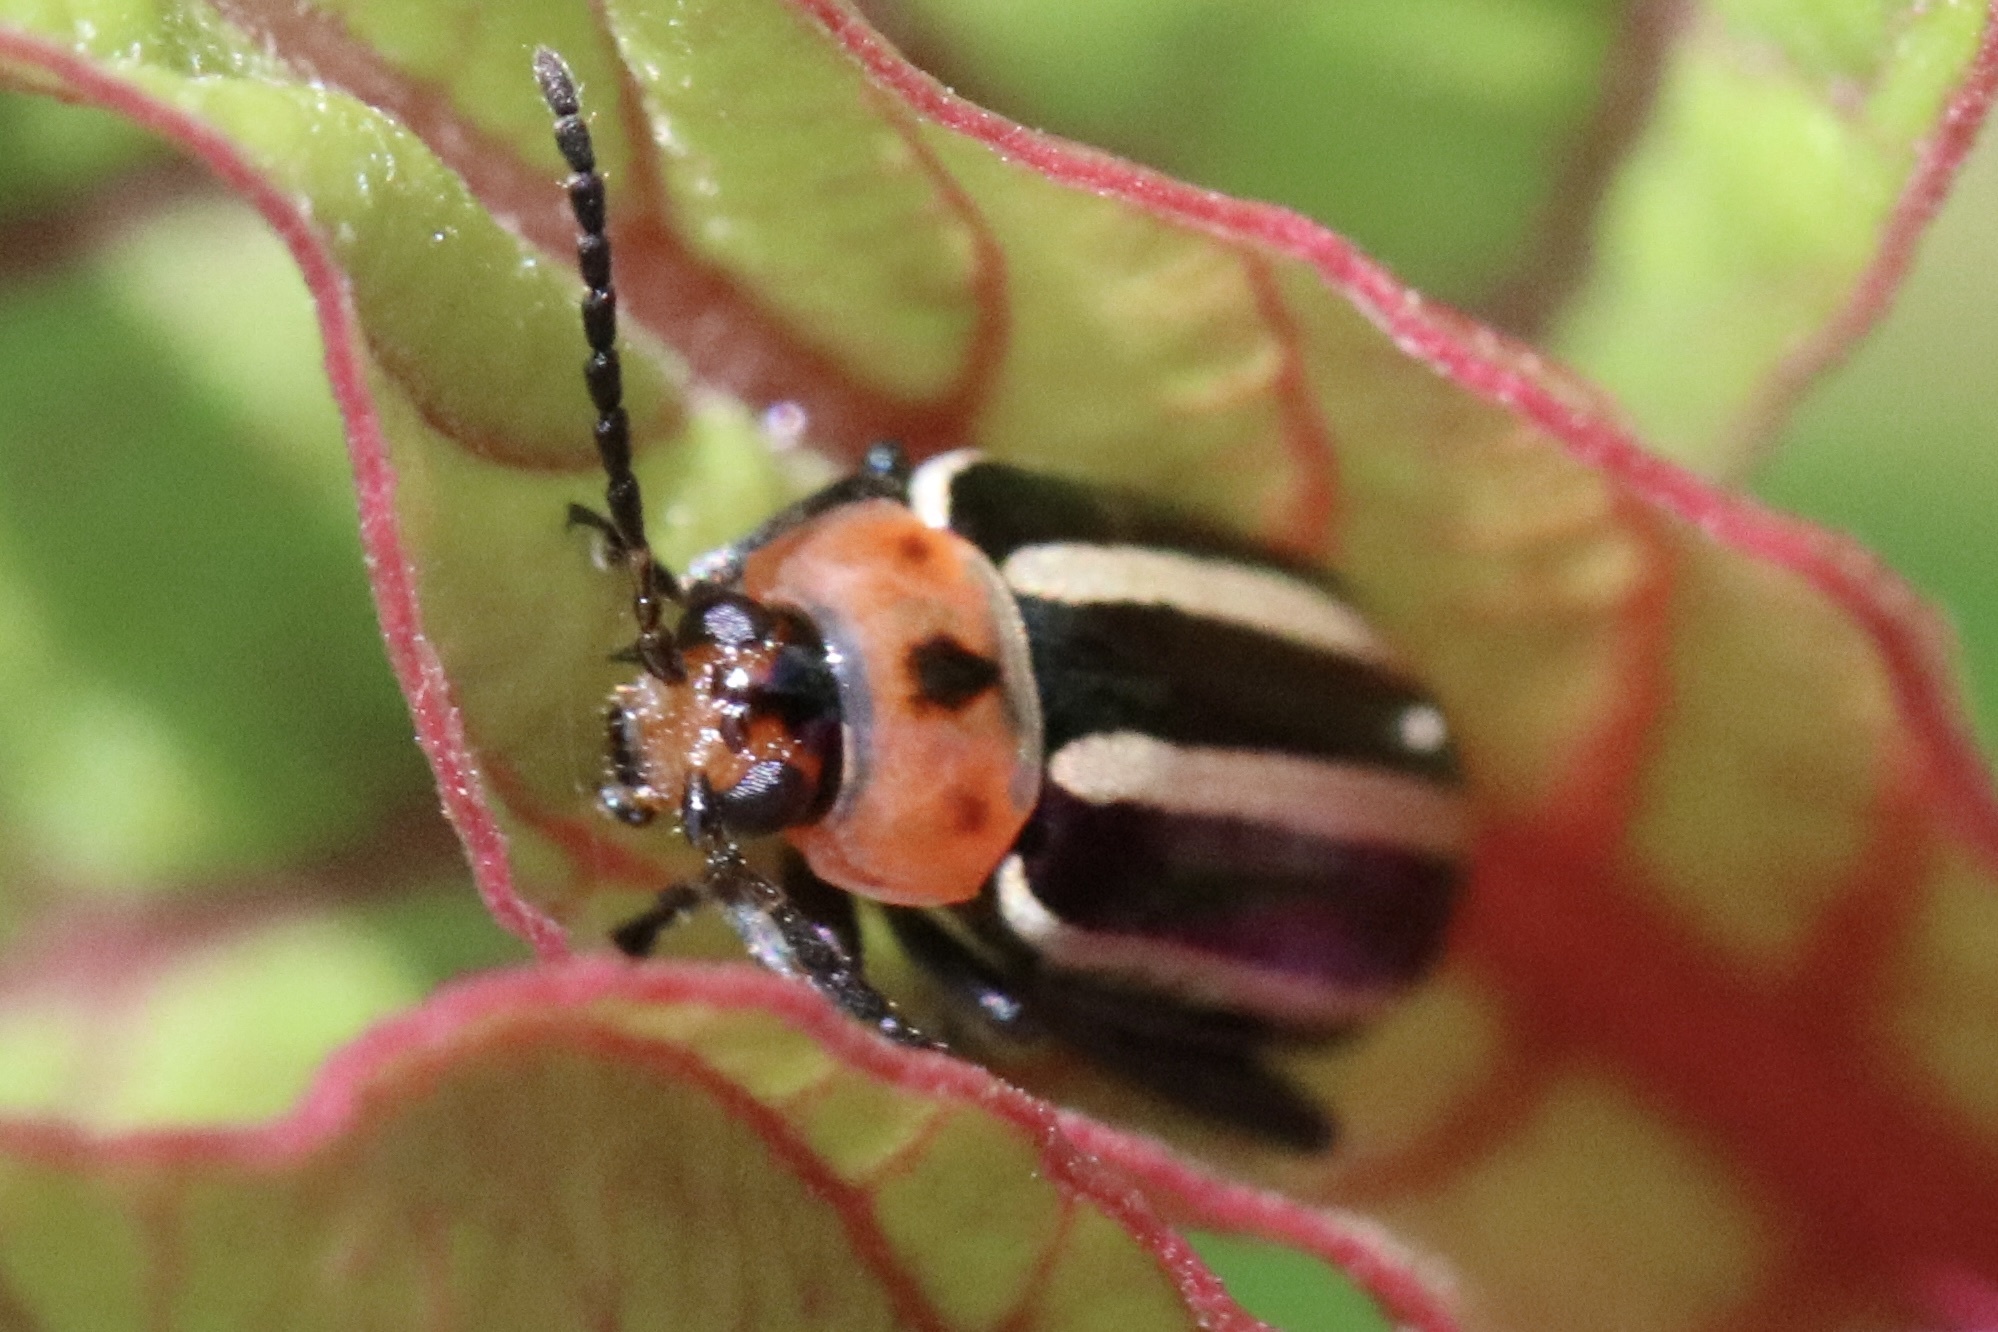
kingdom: Animalia
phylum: Arthropoda
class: Insecta
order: Coleoptera
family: Chrysomelidae
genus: Disonycha
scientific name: Disonycha glabrata
